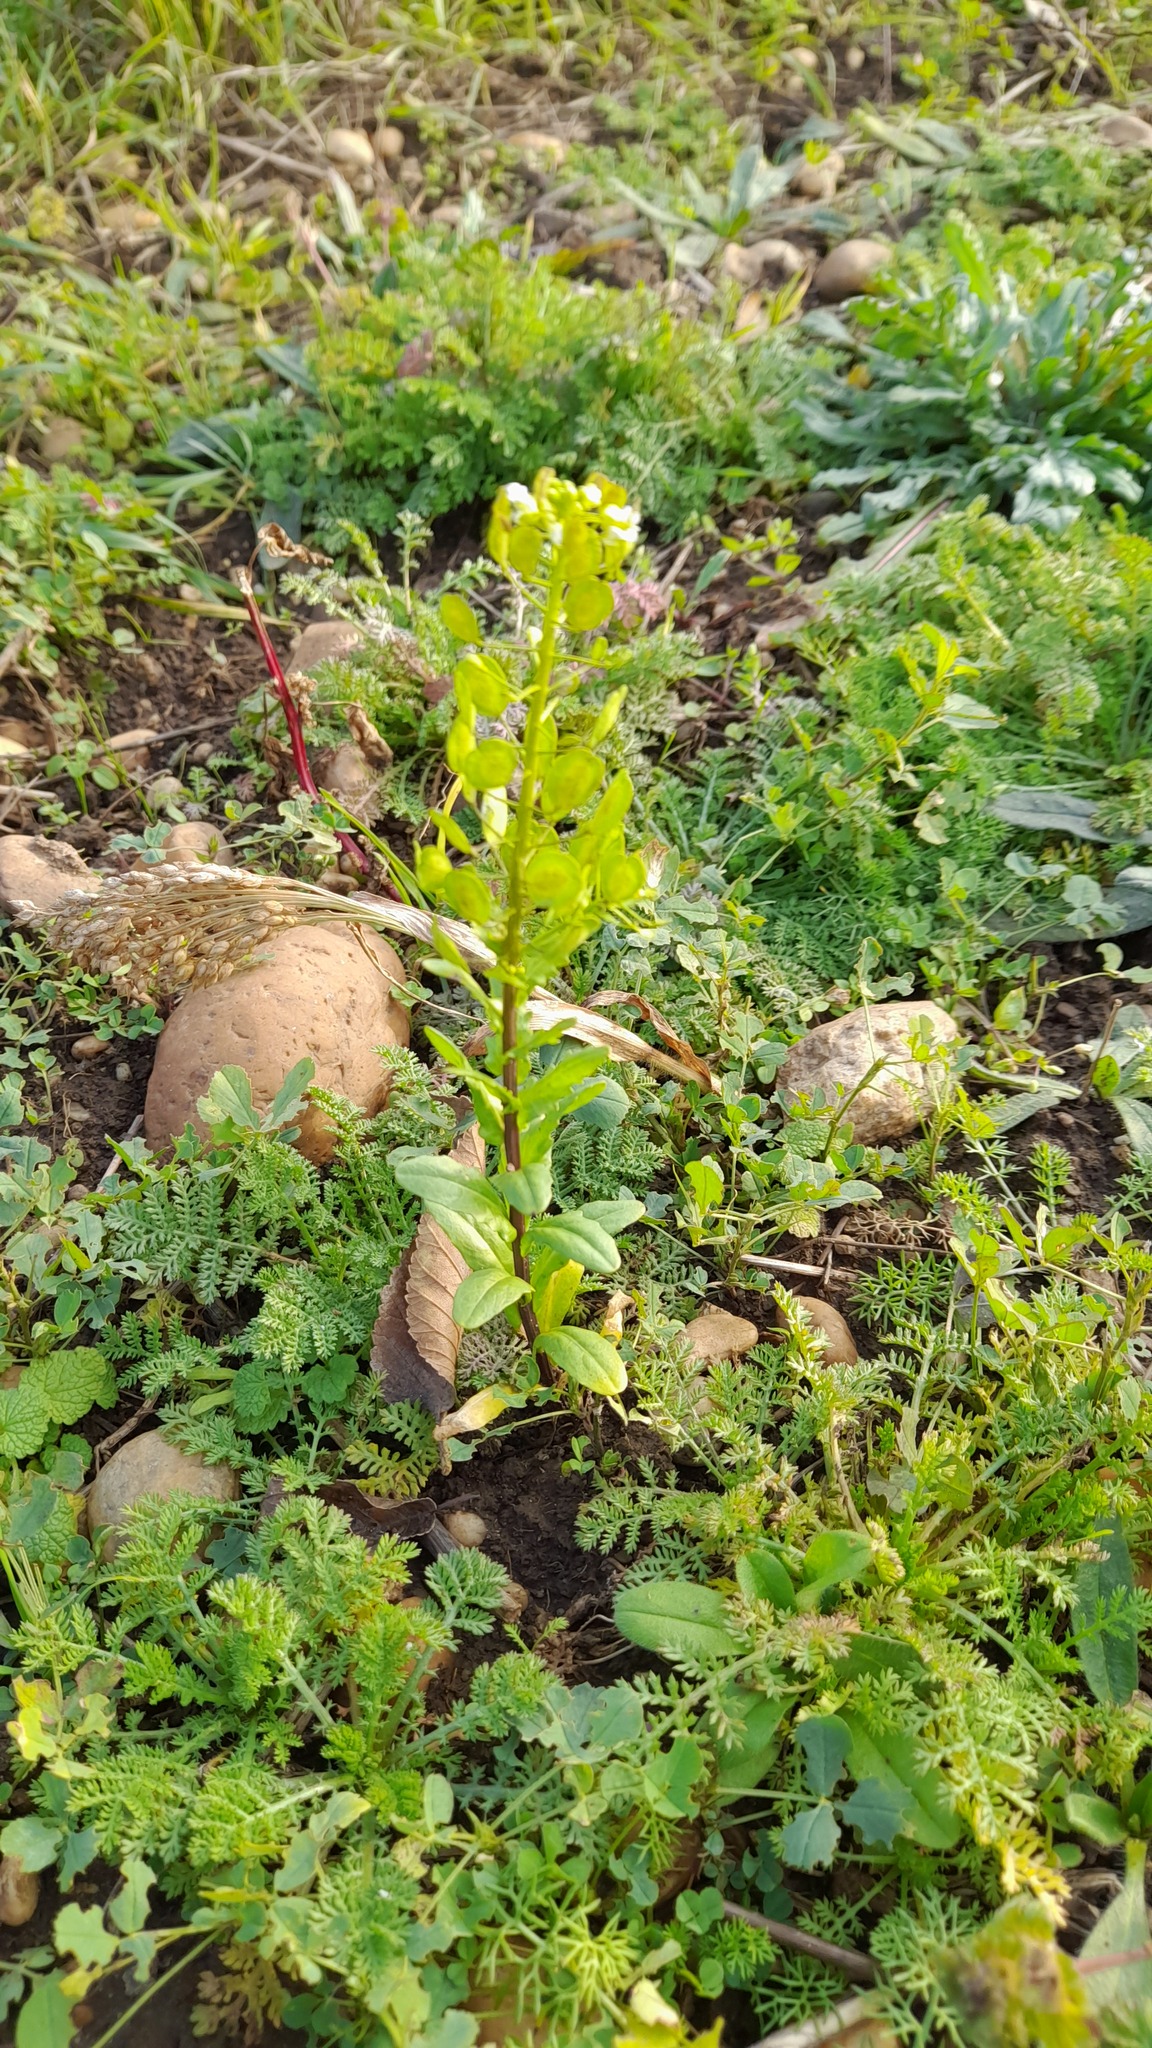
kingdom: Plantae
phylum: Tracheophyta
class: Magnoliopsida
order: Brassicales
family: Brassicaceae
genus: Thlaspi
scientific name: Thlaspi arvense
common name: Field pennycress
